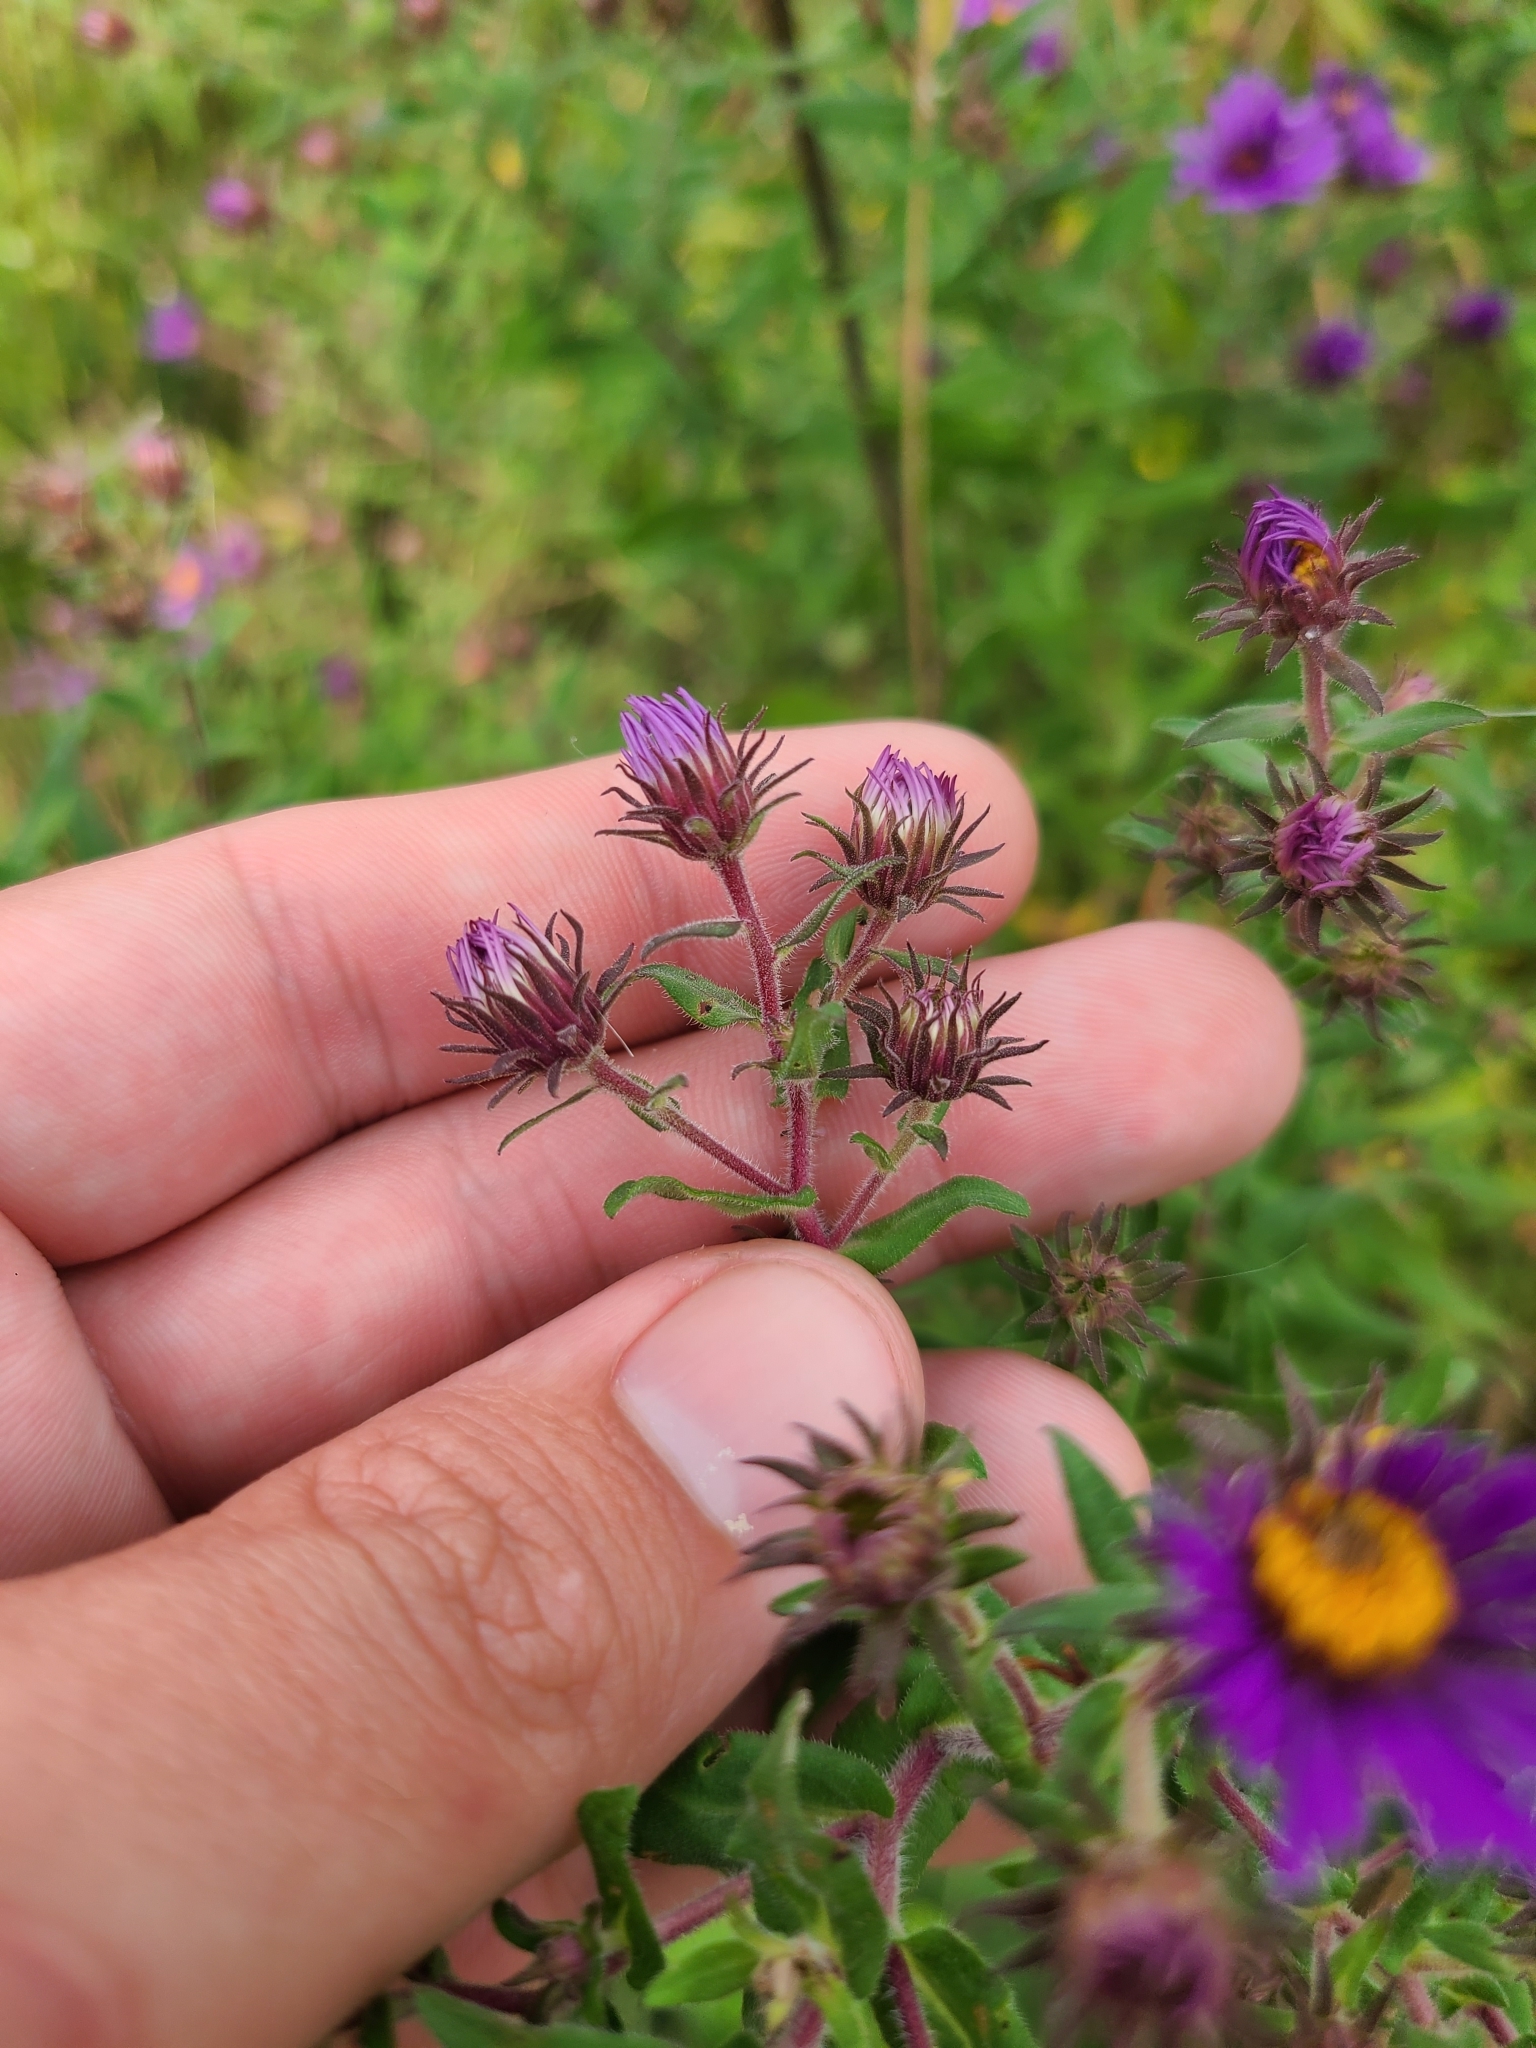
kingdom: Plantae
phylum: Tracheophyta
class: Magnoliopsida
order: Asterales
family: Asteraceae
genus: Symphyotrichum
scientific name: Symphyotrichum novae-angliae
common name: Michaelmas daisy
